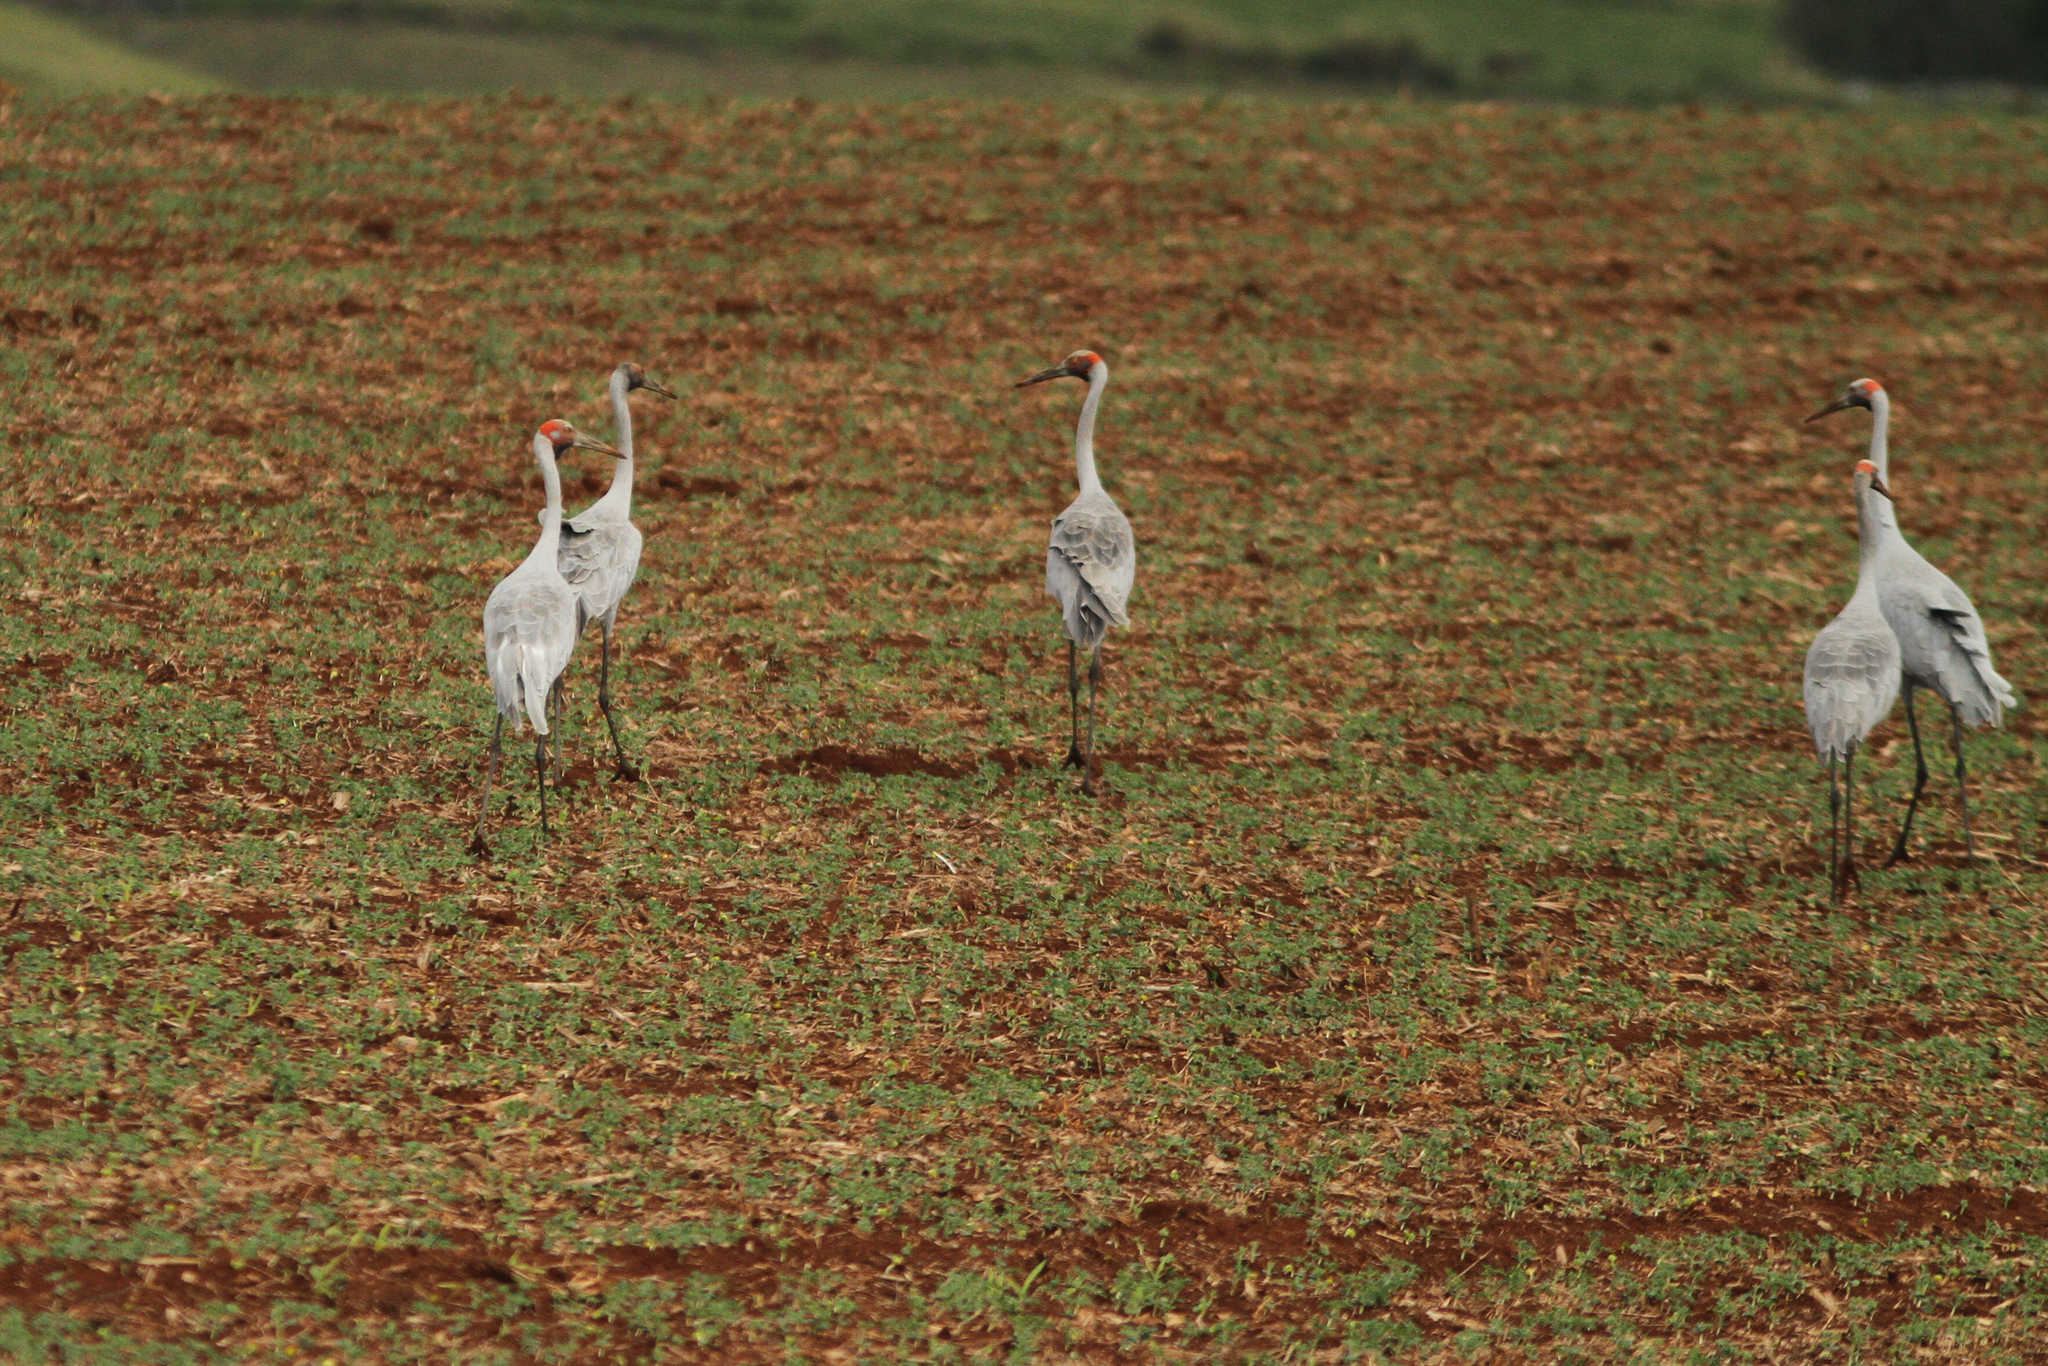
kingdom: Animalia
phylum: Chordata
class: Aves
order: Gruiformes
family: Gruidae
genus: Grus
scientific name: Grus rubicunda
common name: Brolga
